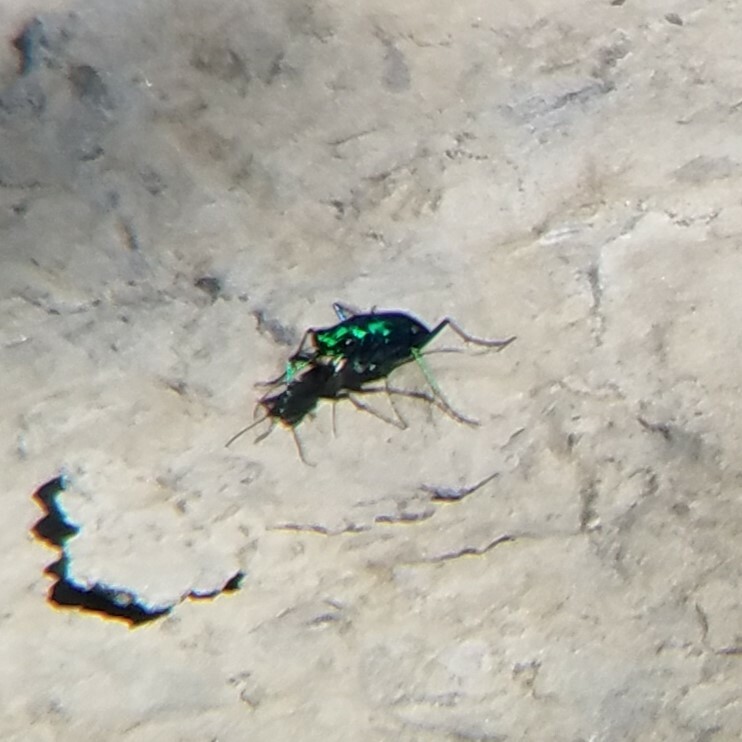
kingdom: Animalia
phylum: Arthropoda
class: Insecta
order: Coleoptera
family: Carabidae
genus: Cicindela
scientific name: Cicindela sexguttata
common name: Six-spotted tiger beetle
